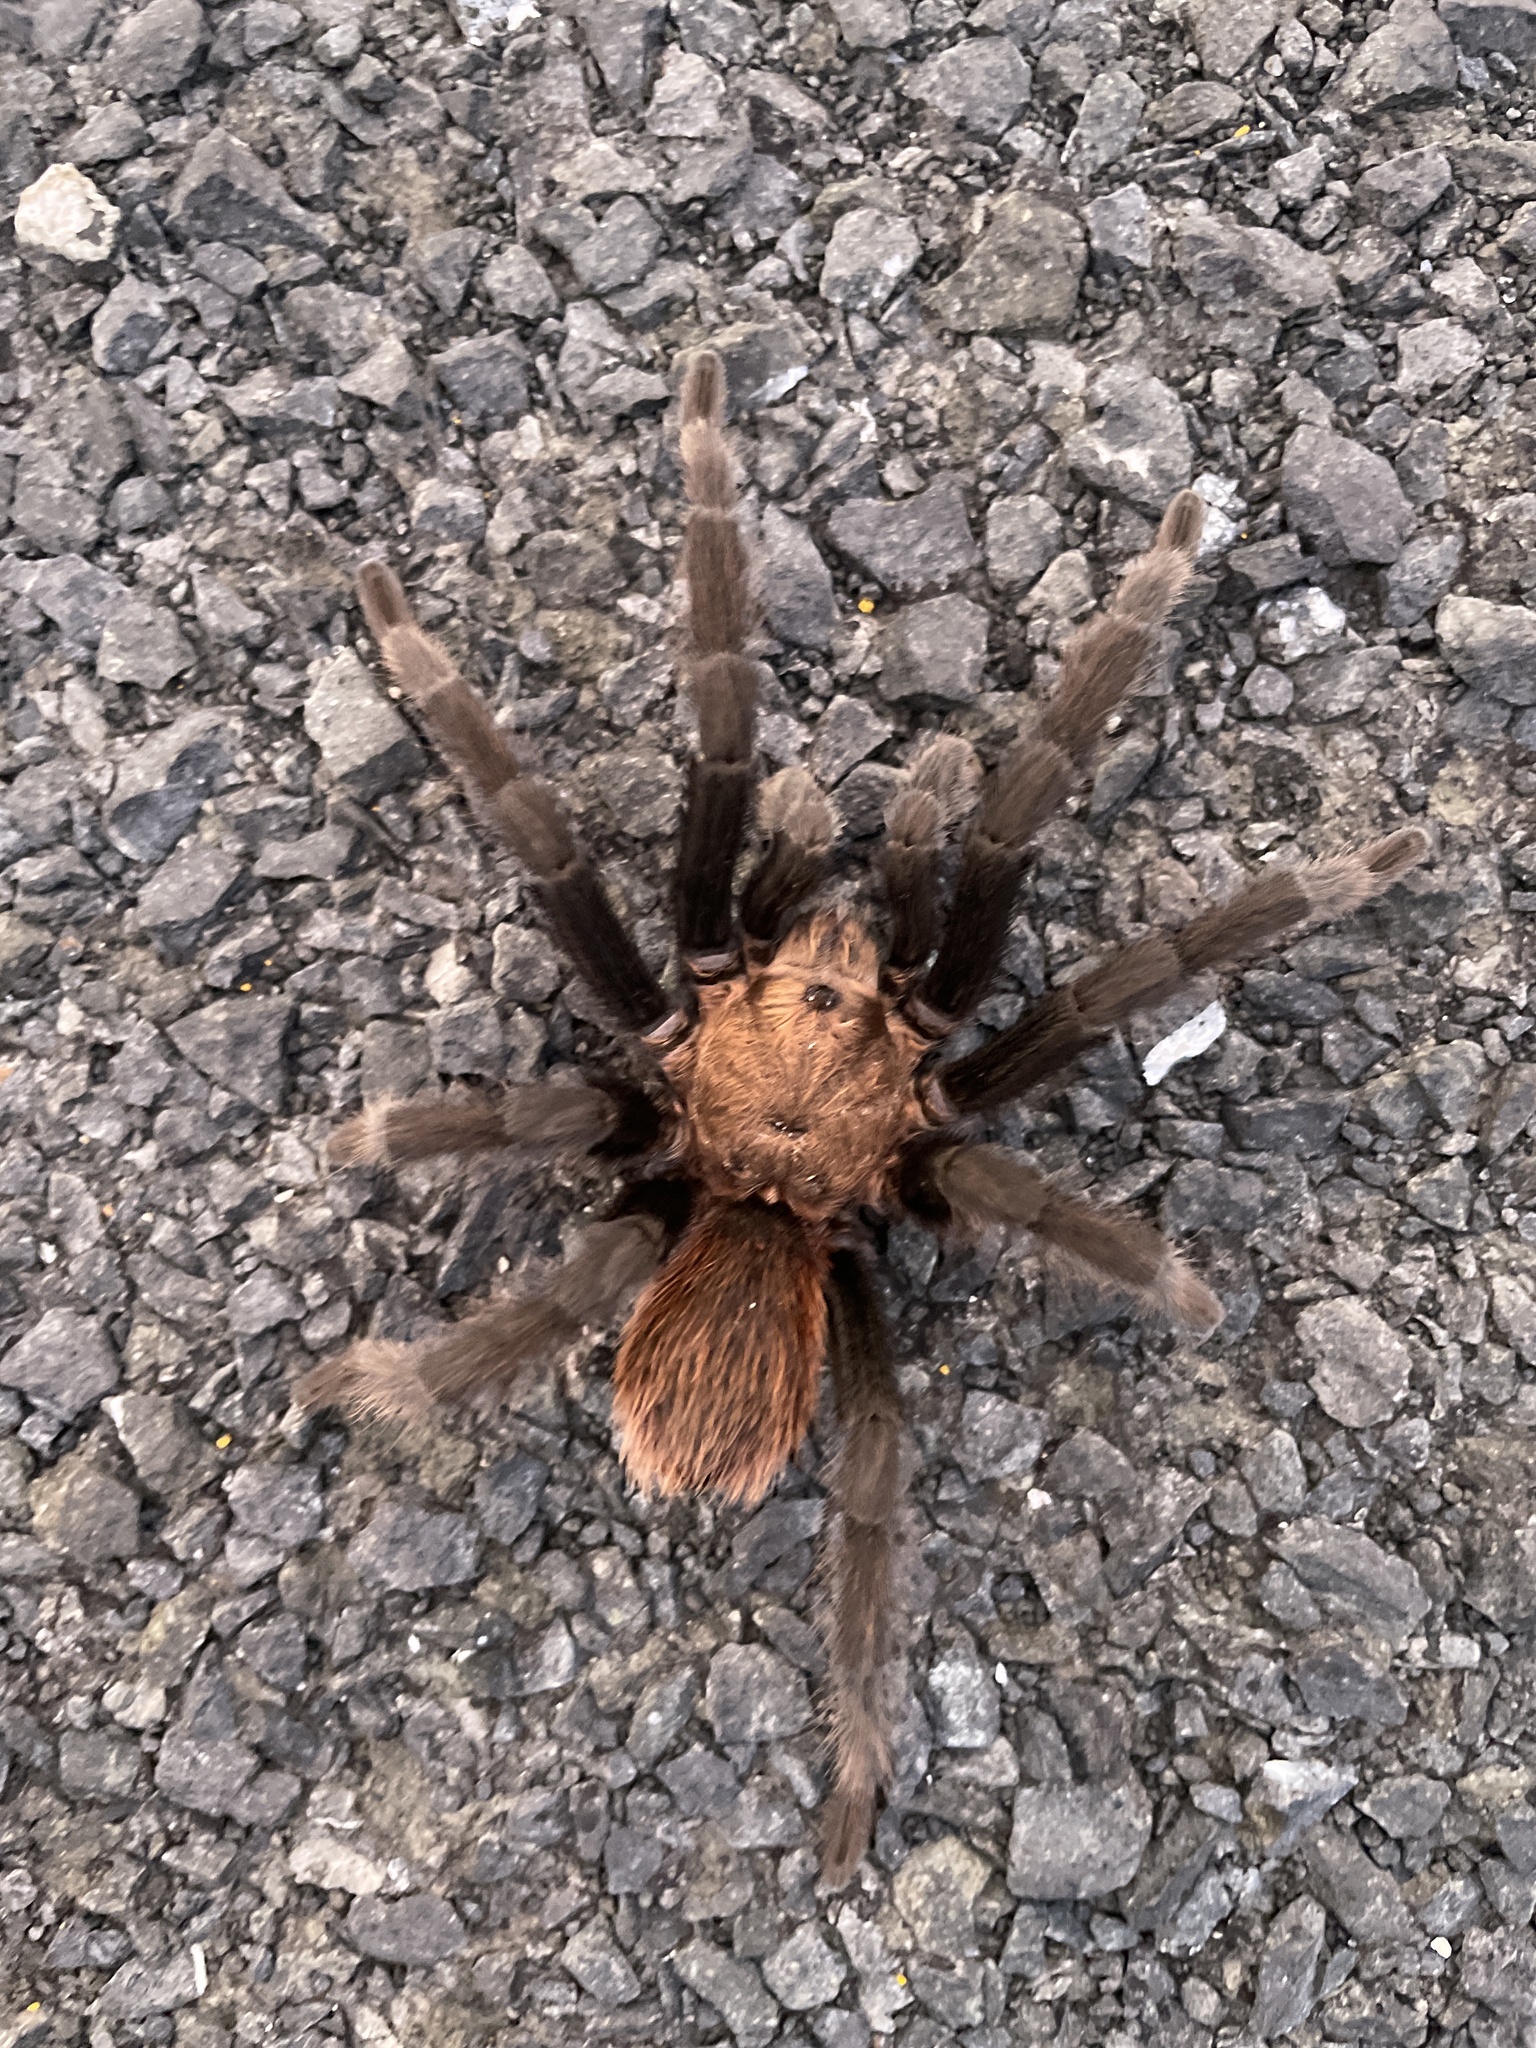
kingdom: Animalia
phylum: Arthropoda
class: Arachnida
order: Araneae
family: Theraphosidae
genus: Aphonopelma
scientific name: Aphonopelma anax
